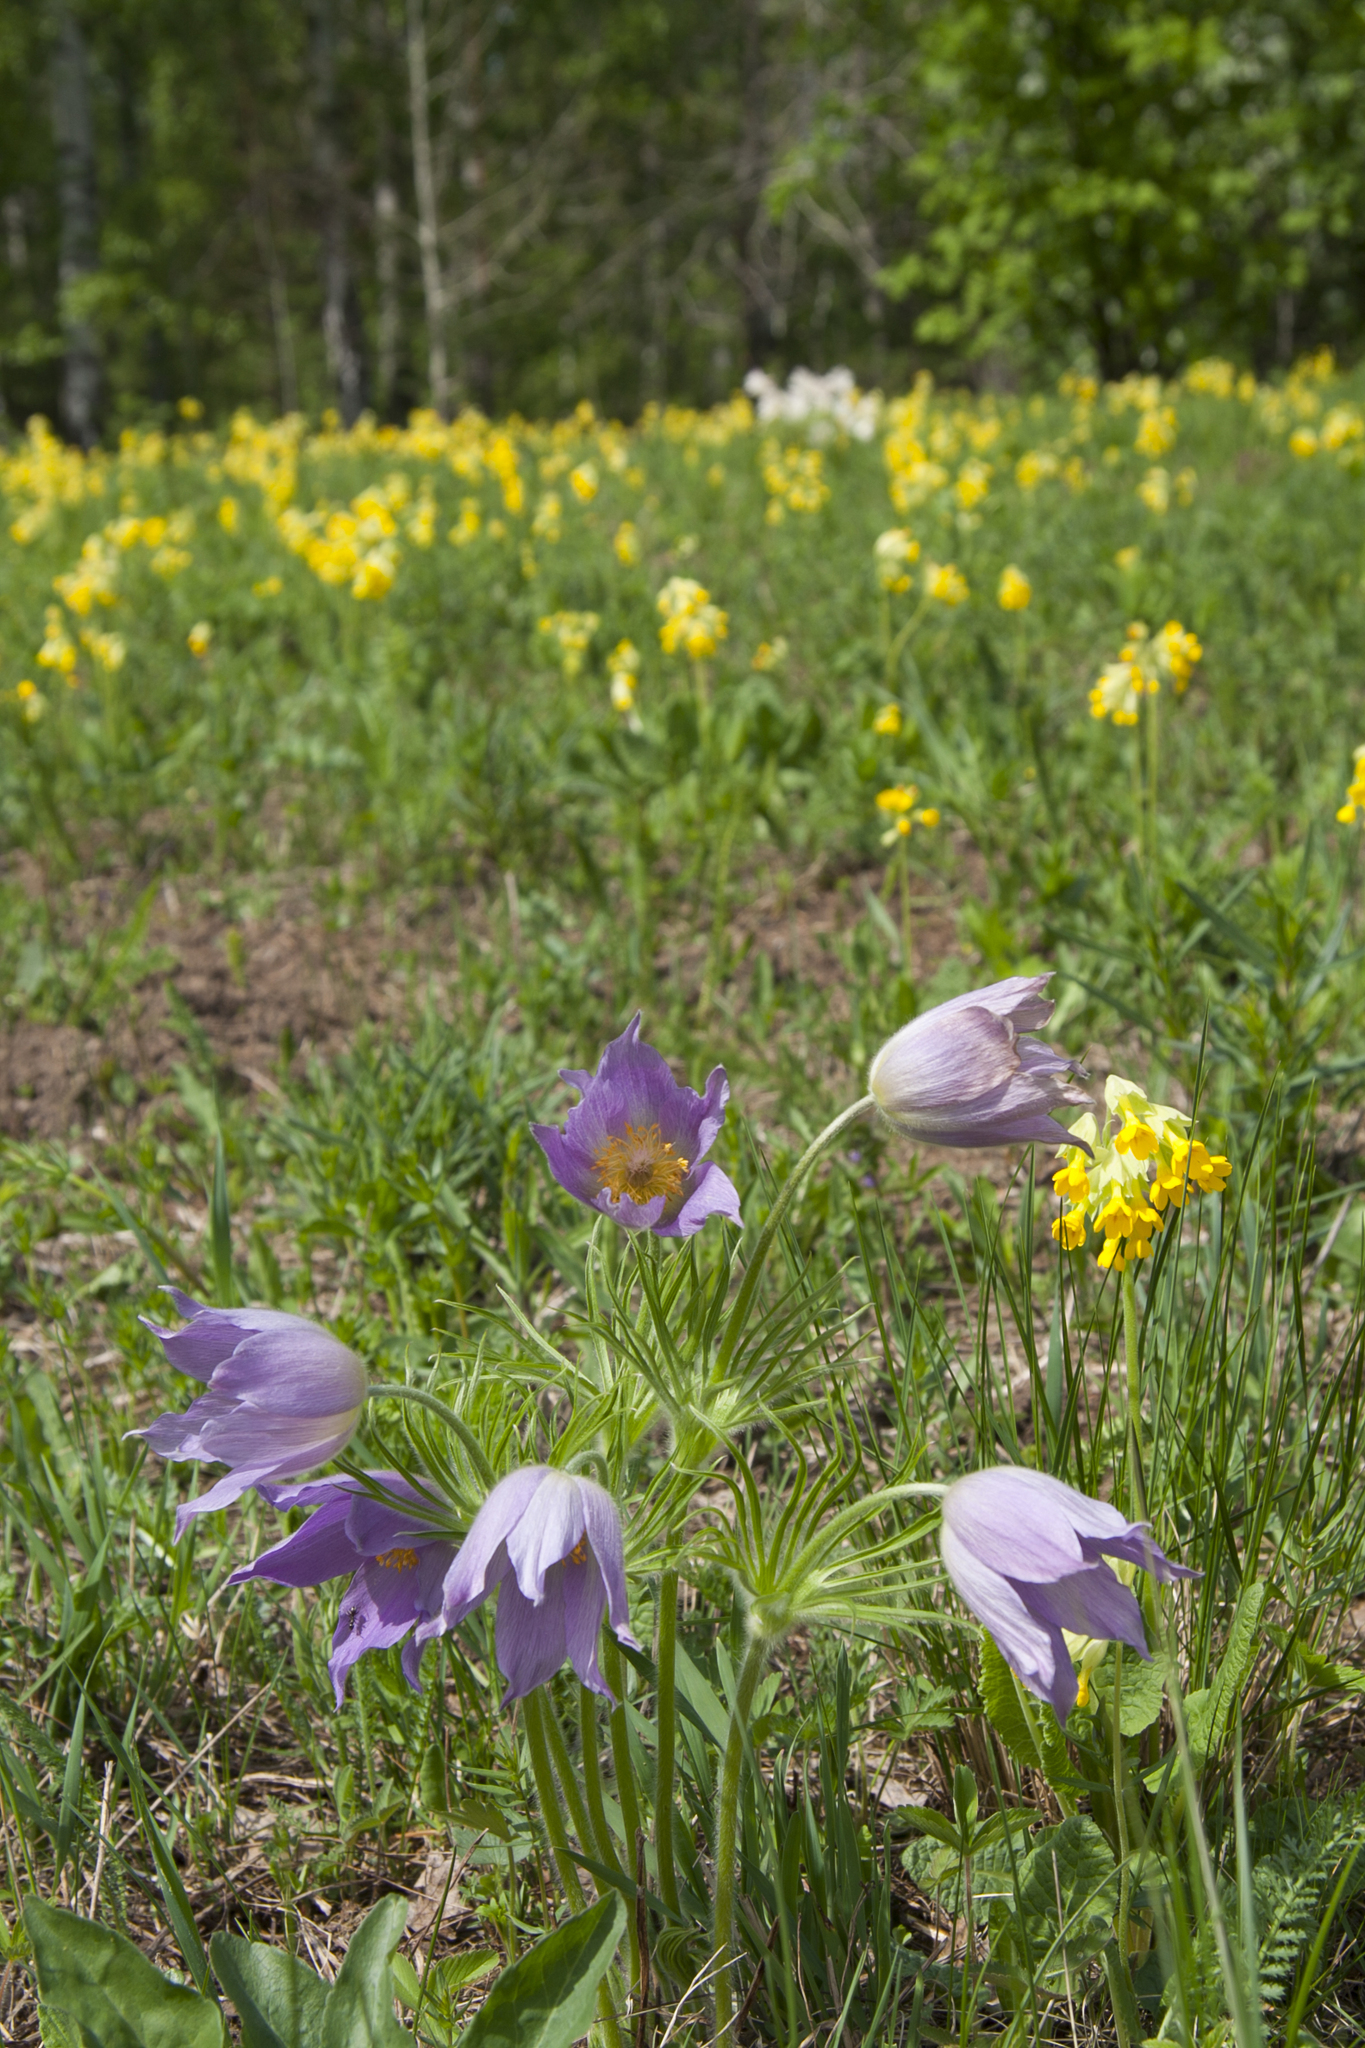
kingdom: Plantae
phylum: Tracheophyta
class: Magnoliopsida
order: Ranunculales
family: Ranunculaceae
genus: Pulsatilla
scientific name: Pulsatilla patens
